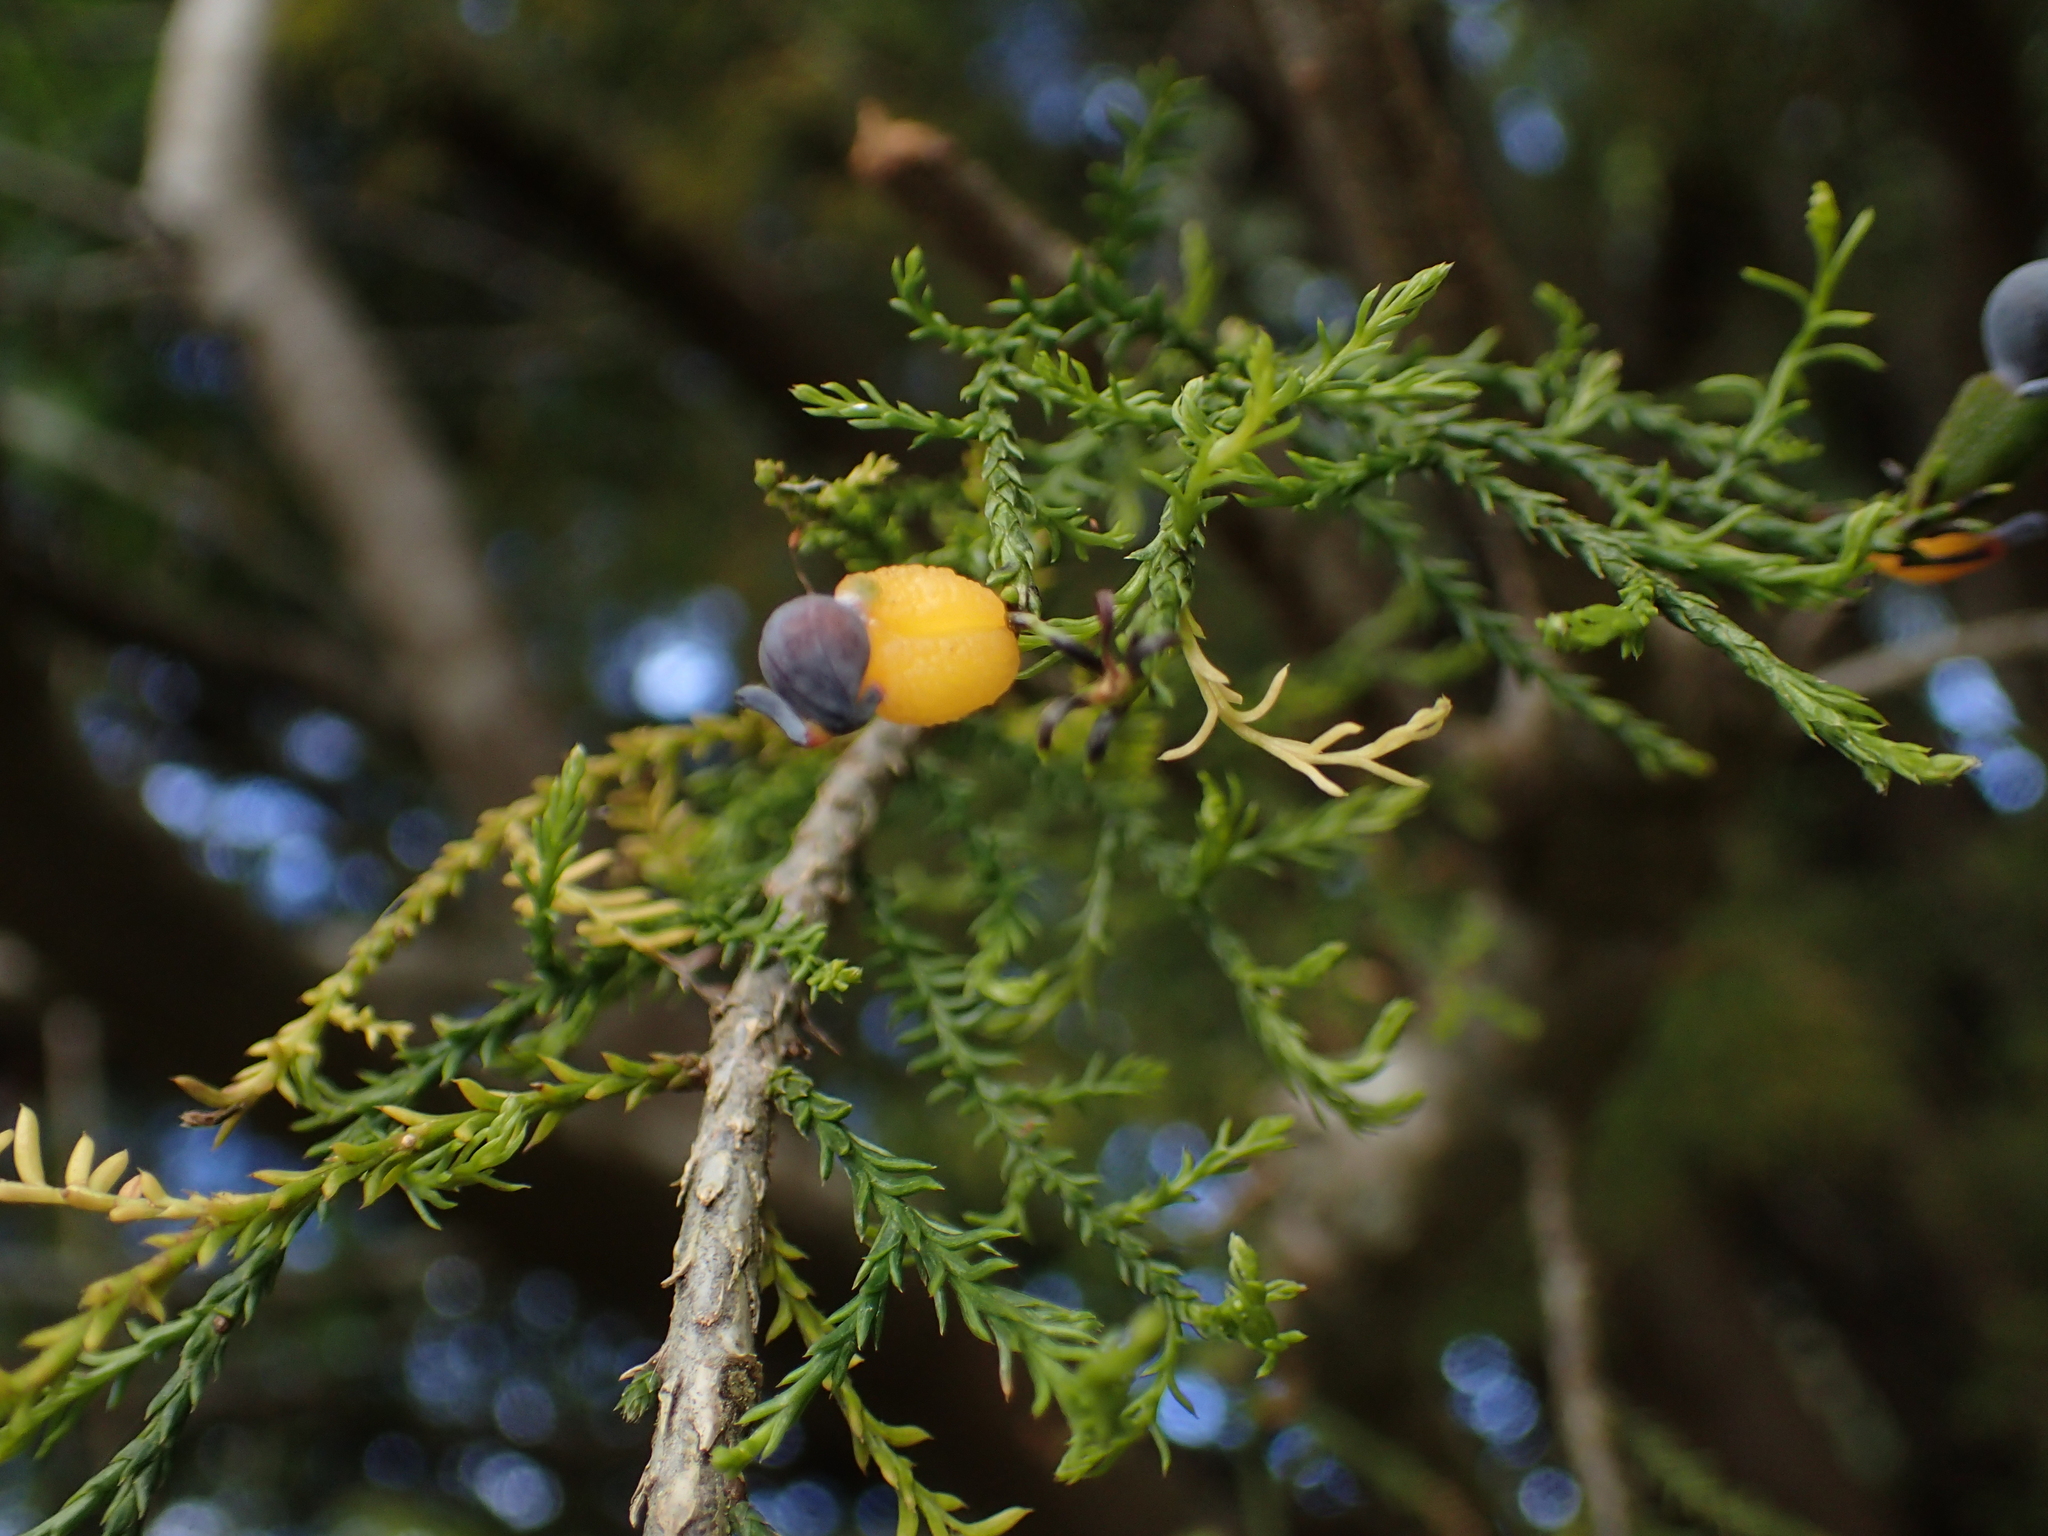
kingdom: Plantae
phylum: Tracheophyta
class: Pinopsida
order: Pinales
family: Podocarpaceae
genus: Dacrycarpus
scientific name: Dacrycarpus dacrydioides
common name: White pine
